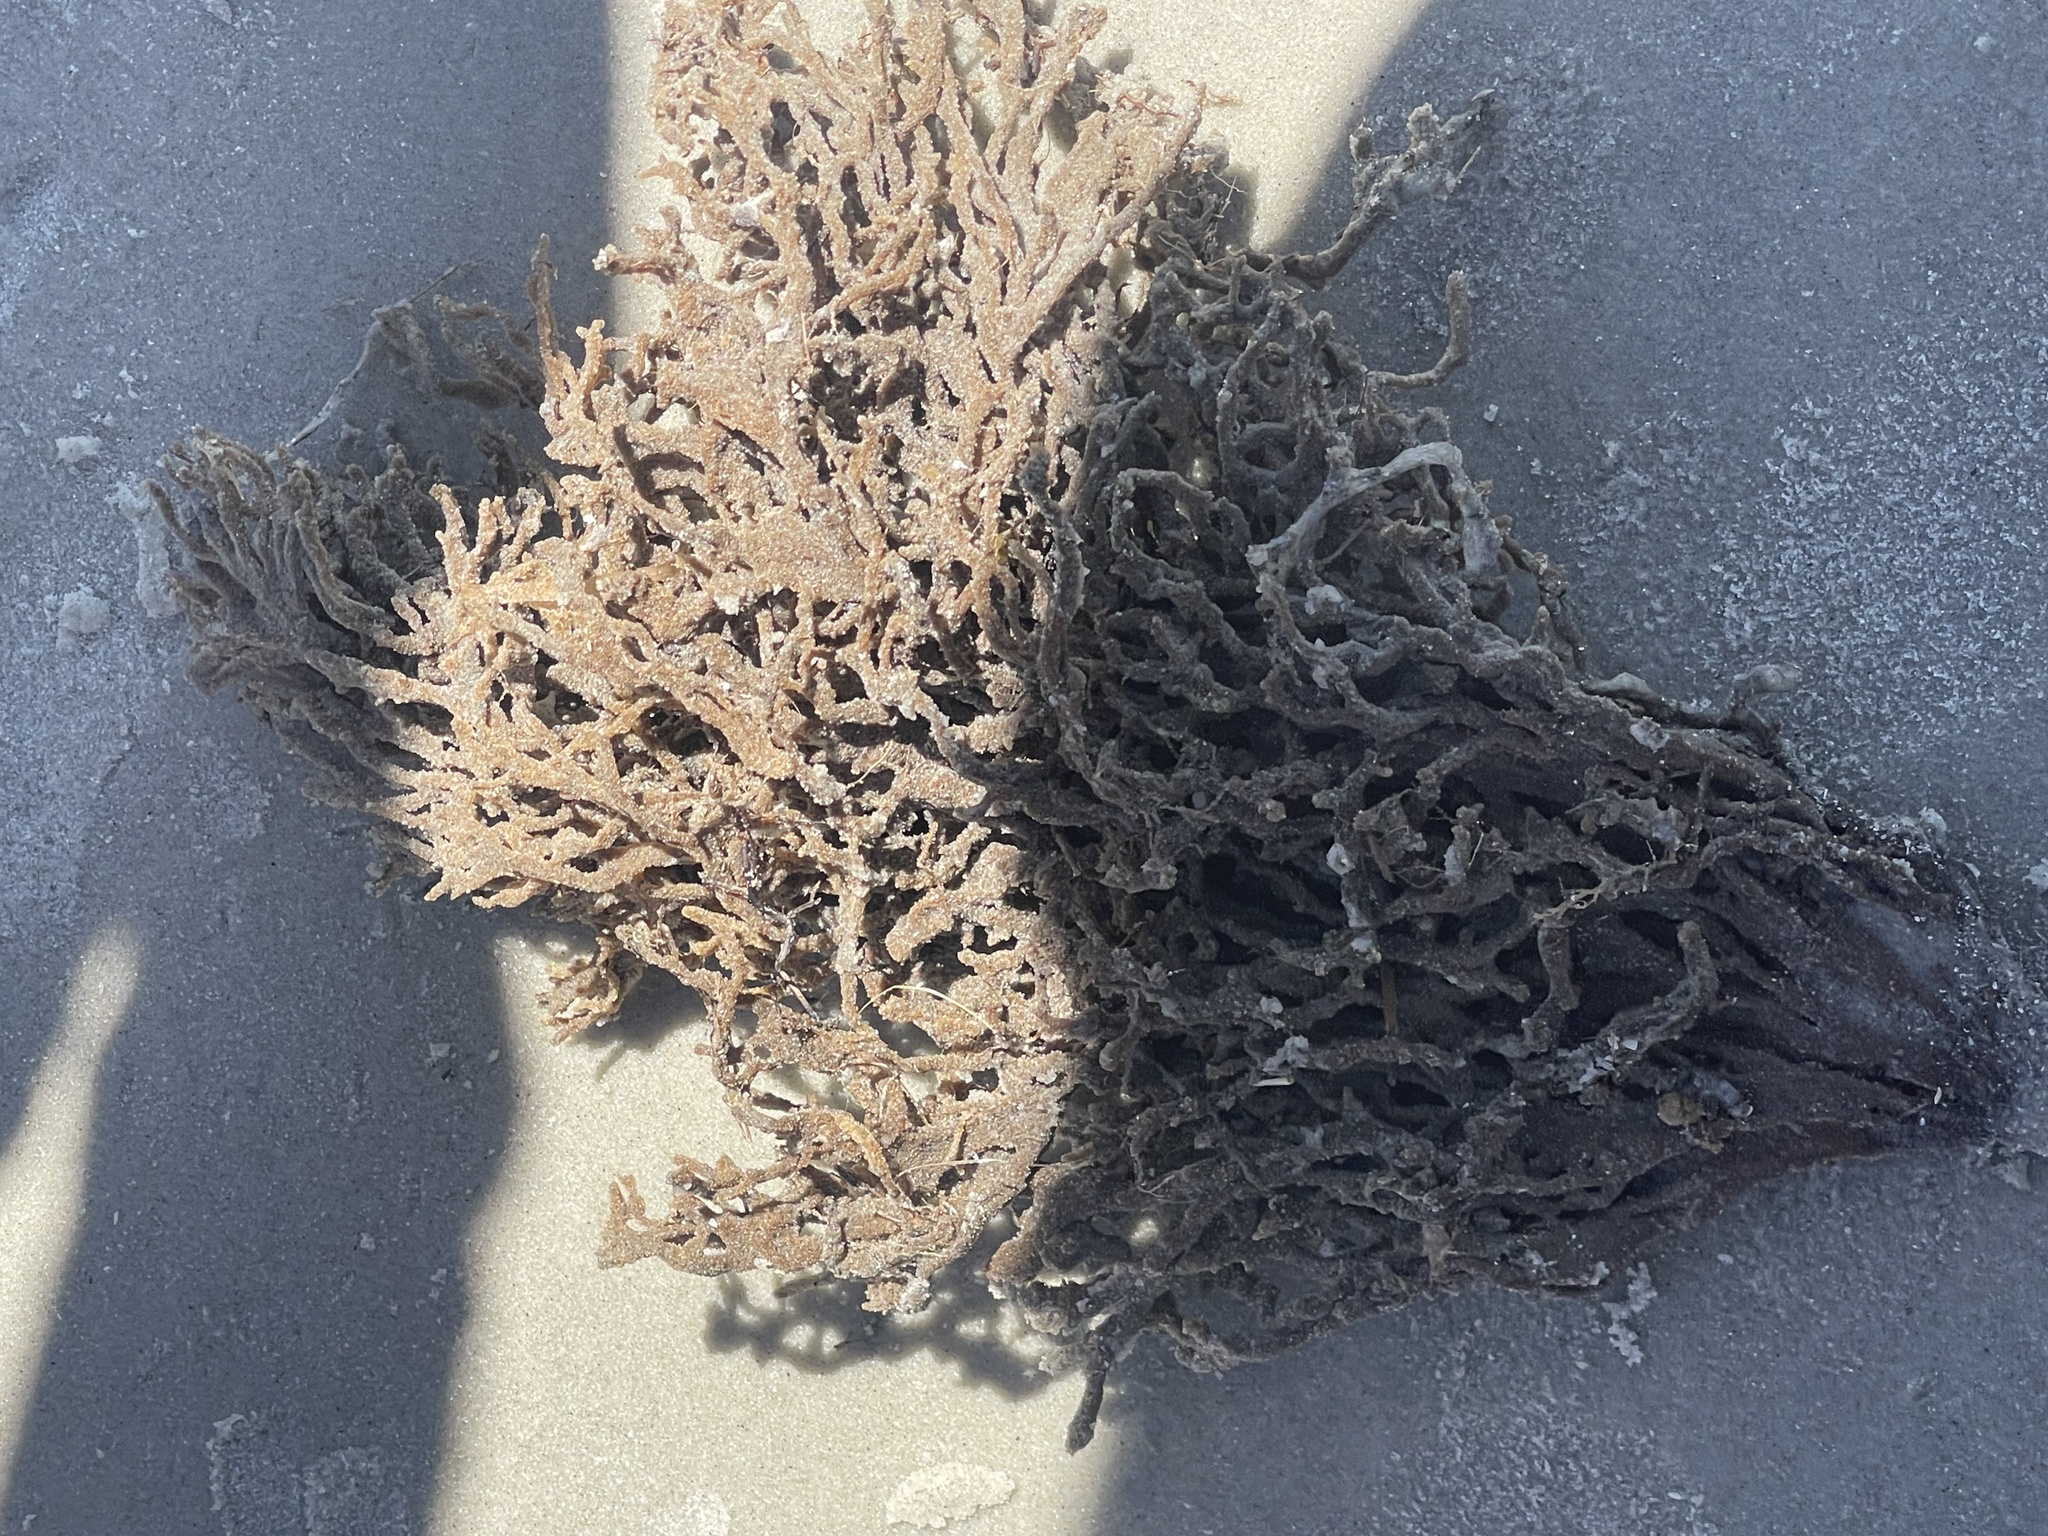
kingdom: Animalia
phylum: Porifera
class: Demospongiae
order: Poecilosclerida
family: Microcionidae
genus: Clathria
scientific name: Clathria prolifera
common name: Red beard sponge
